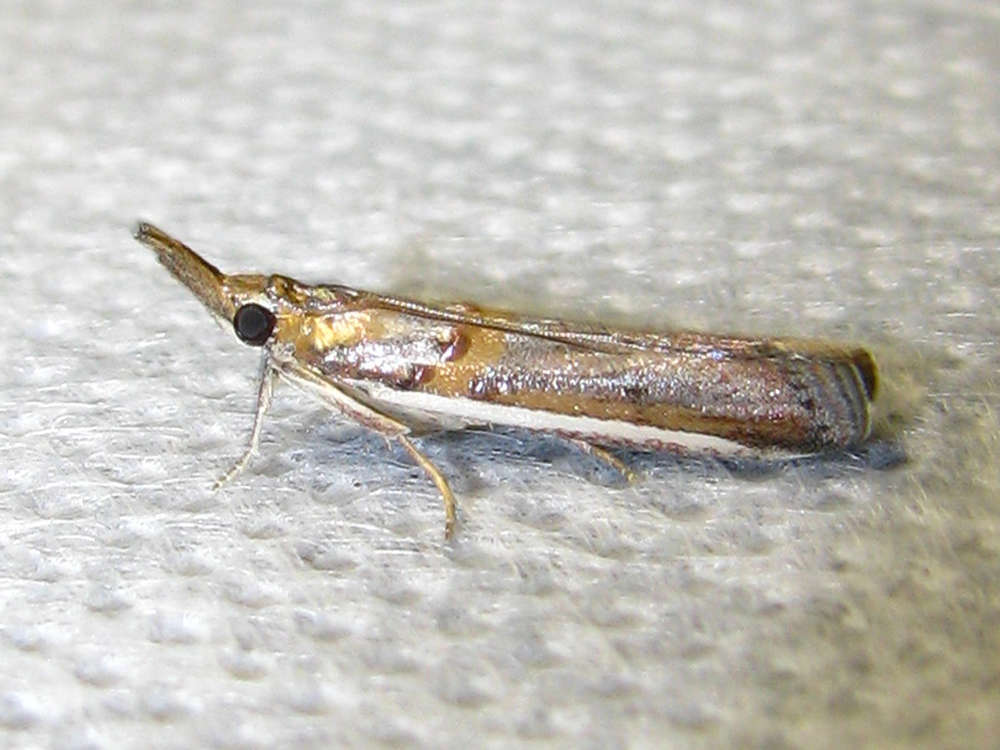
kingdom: Animalia
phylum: Arthropoda
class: Insecta
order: Lepidoptera
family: Pyralidae
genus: Etiella
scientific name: Etiella behrii
